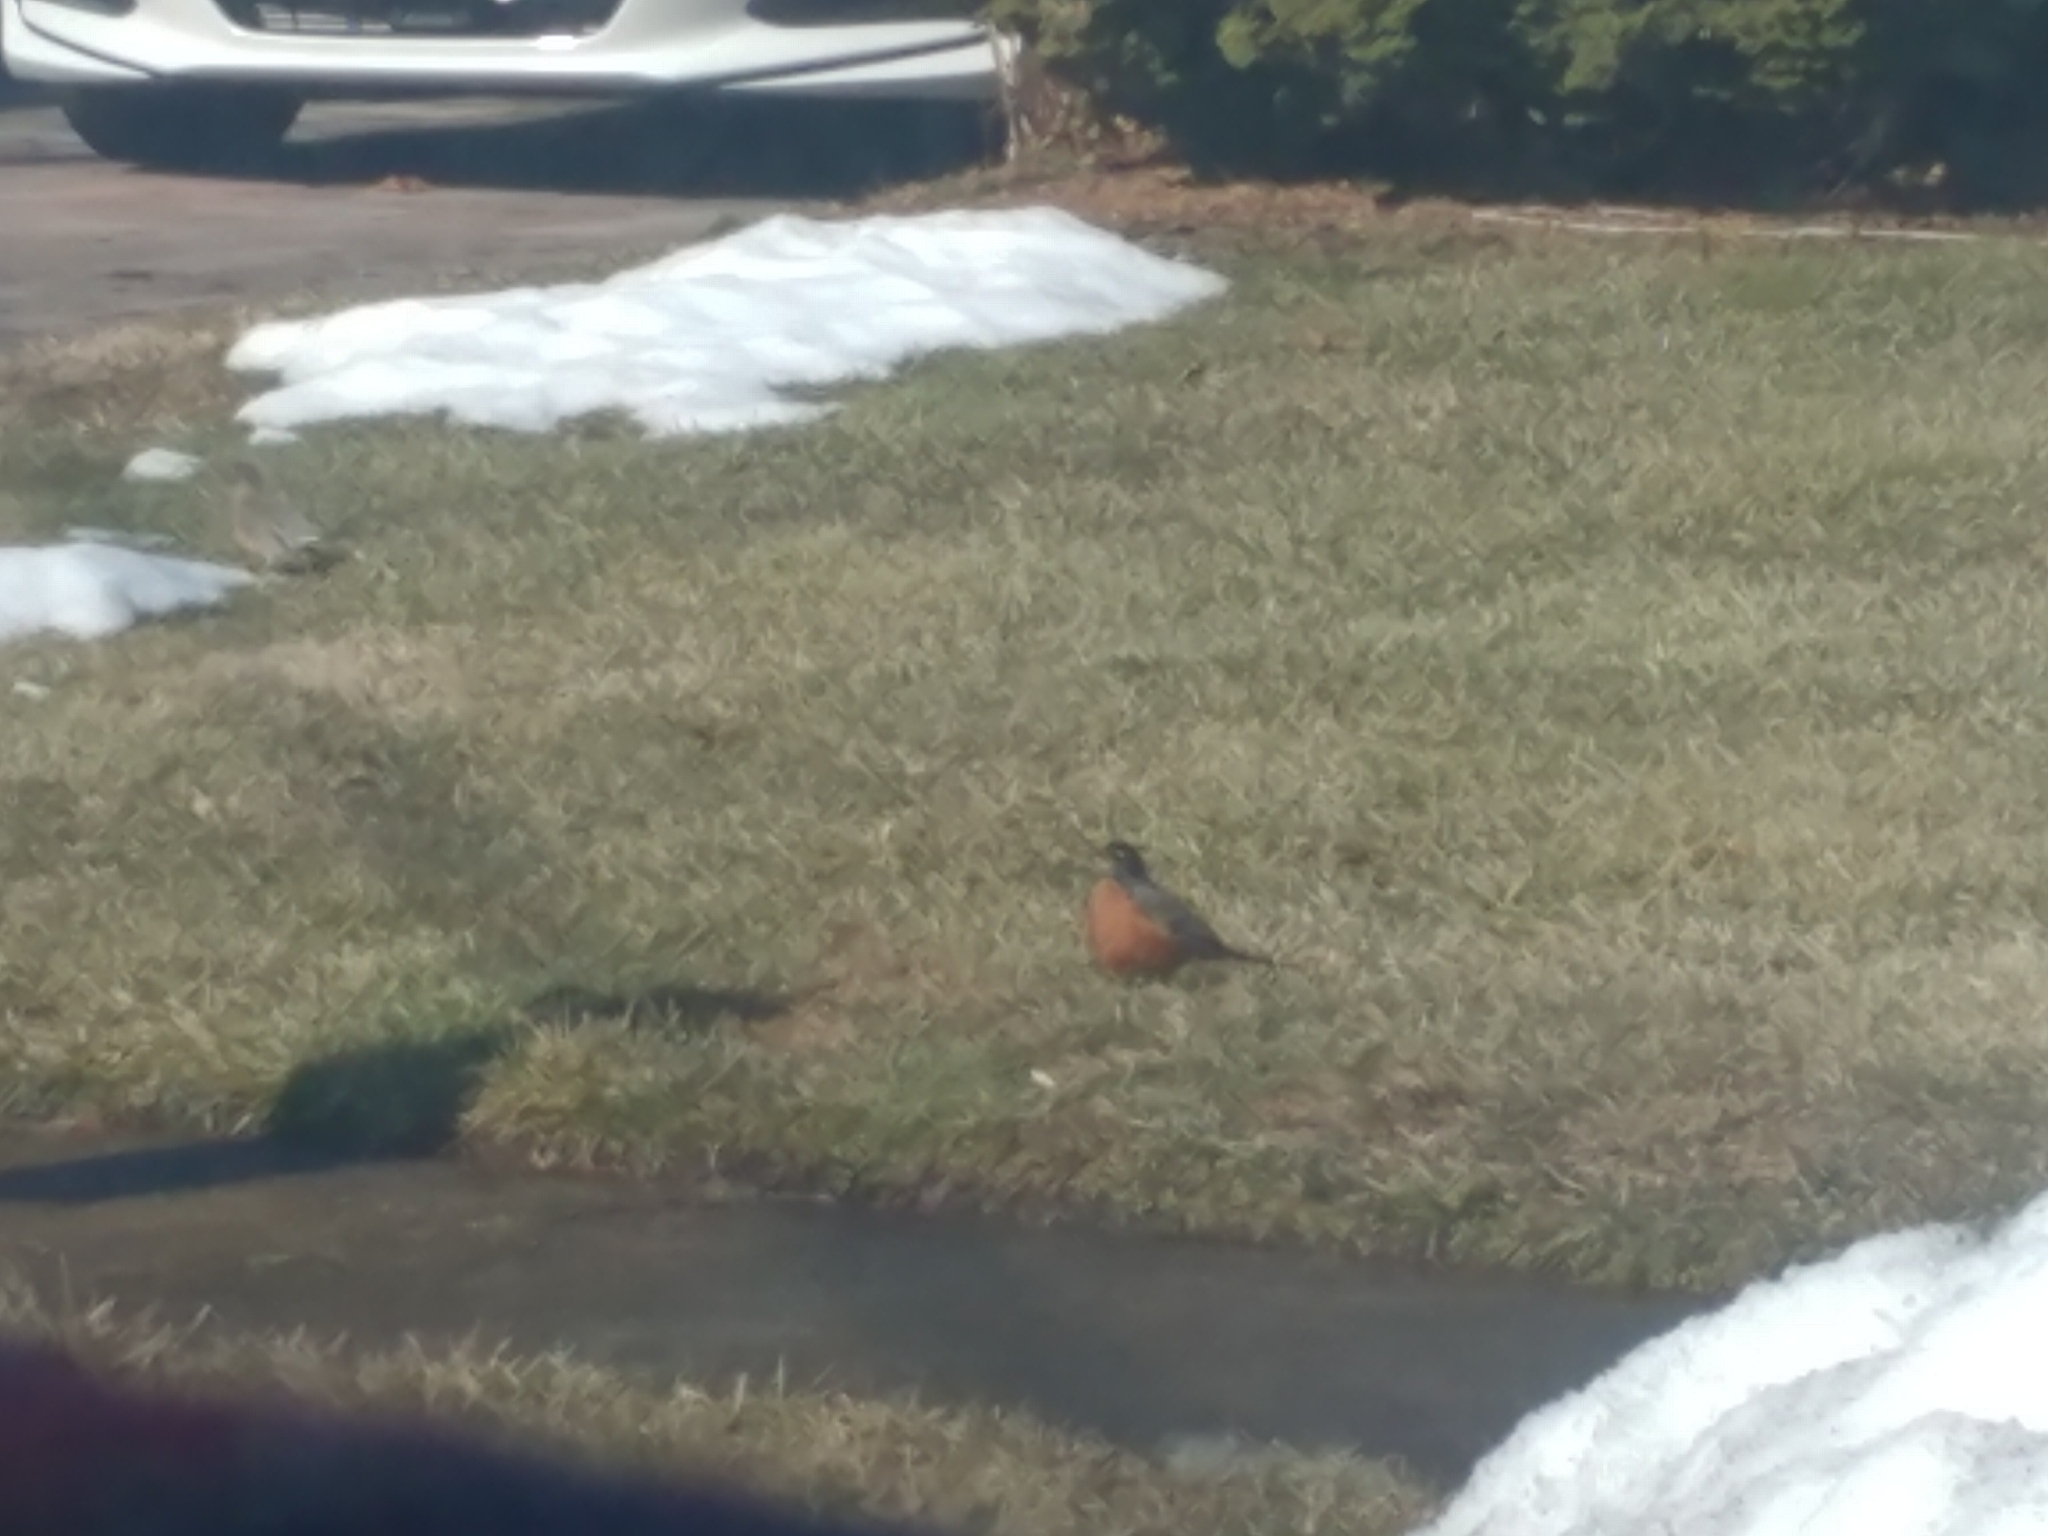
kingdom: Animalia
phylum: Chordata
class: Aves
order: Passeriformes
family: Turdidae
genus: Turdus
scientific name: Turdus migratorius
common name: American robin
